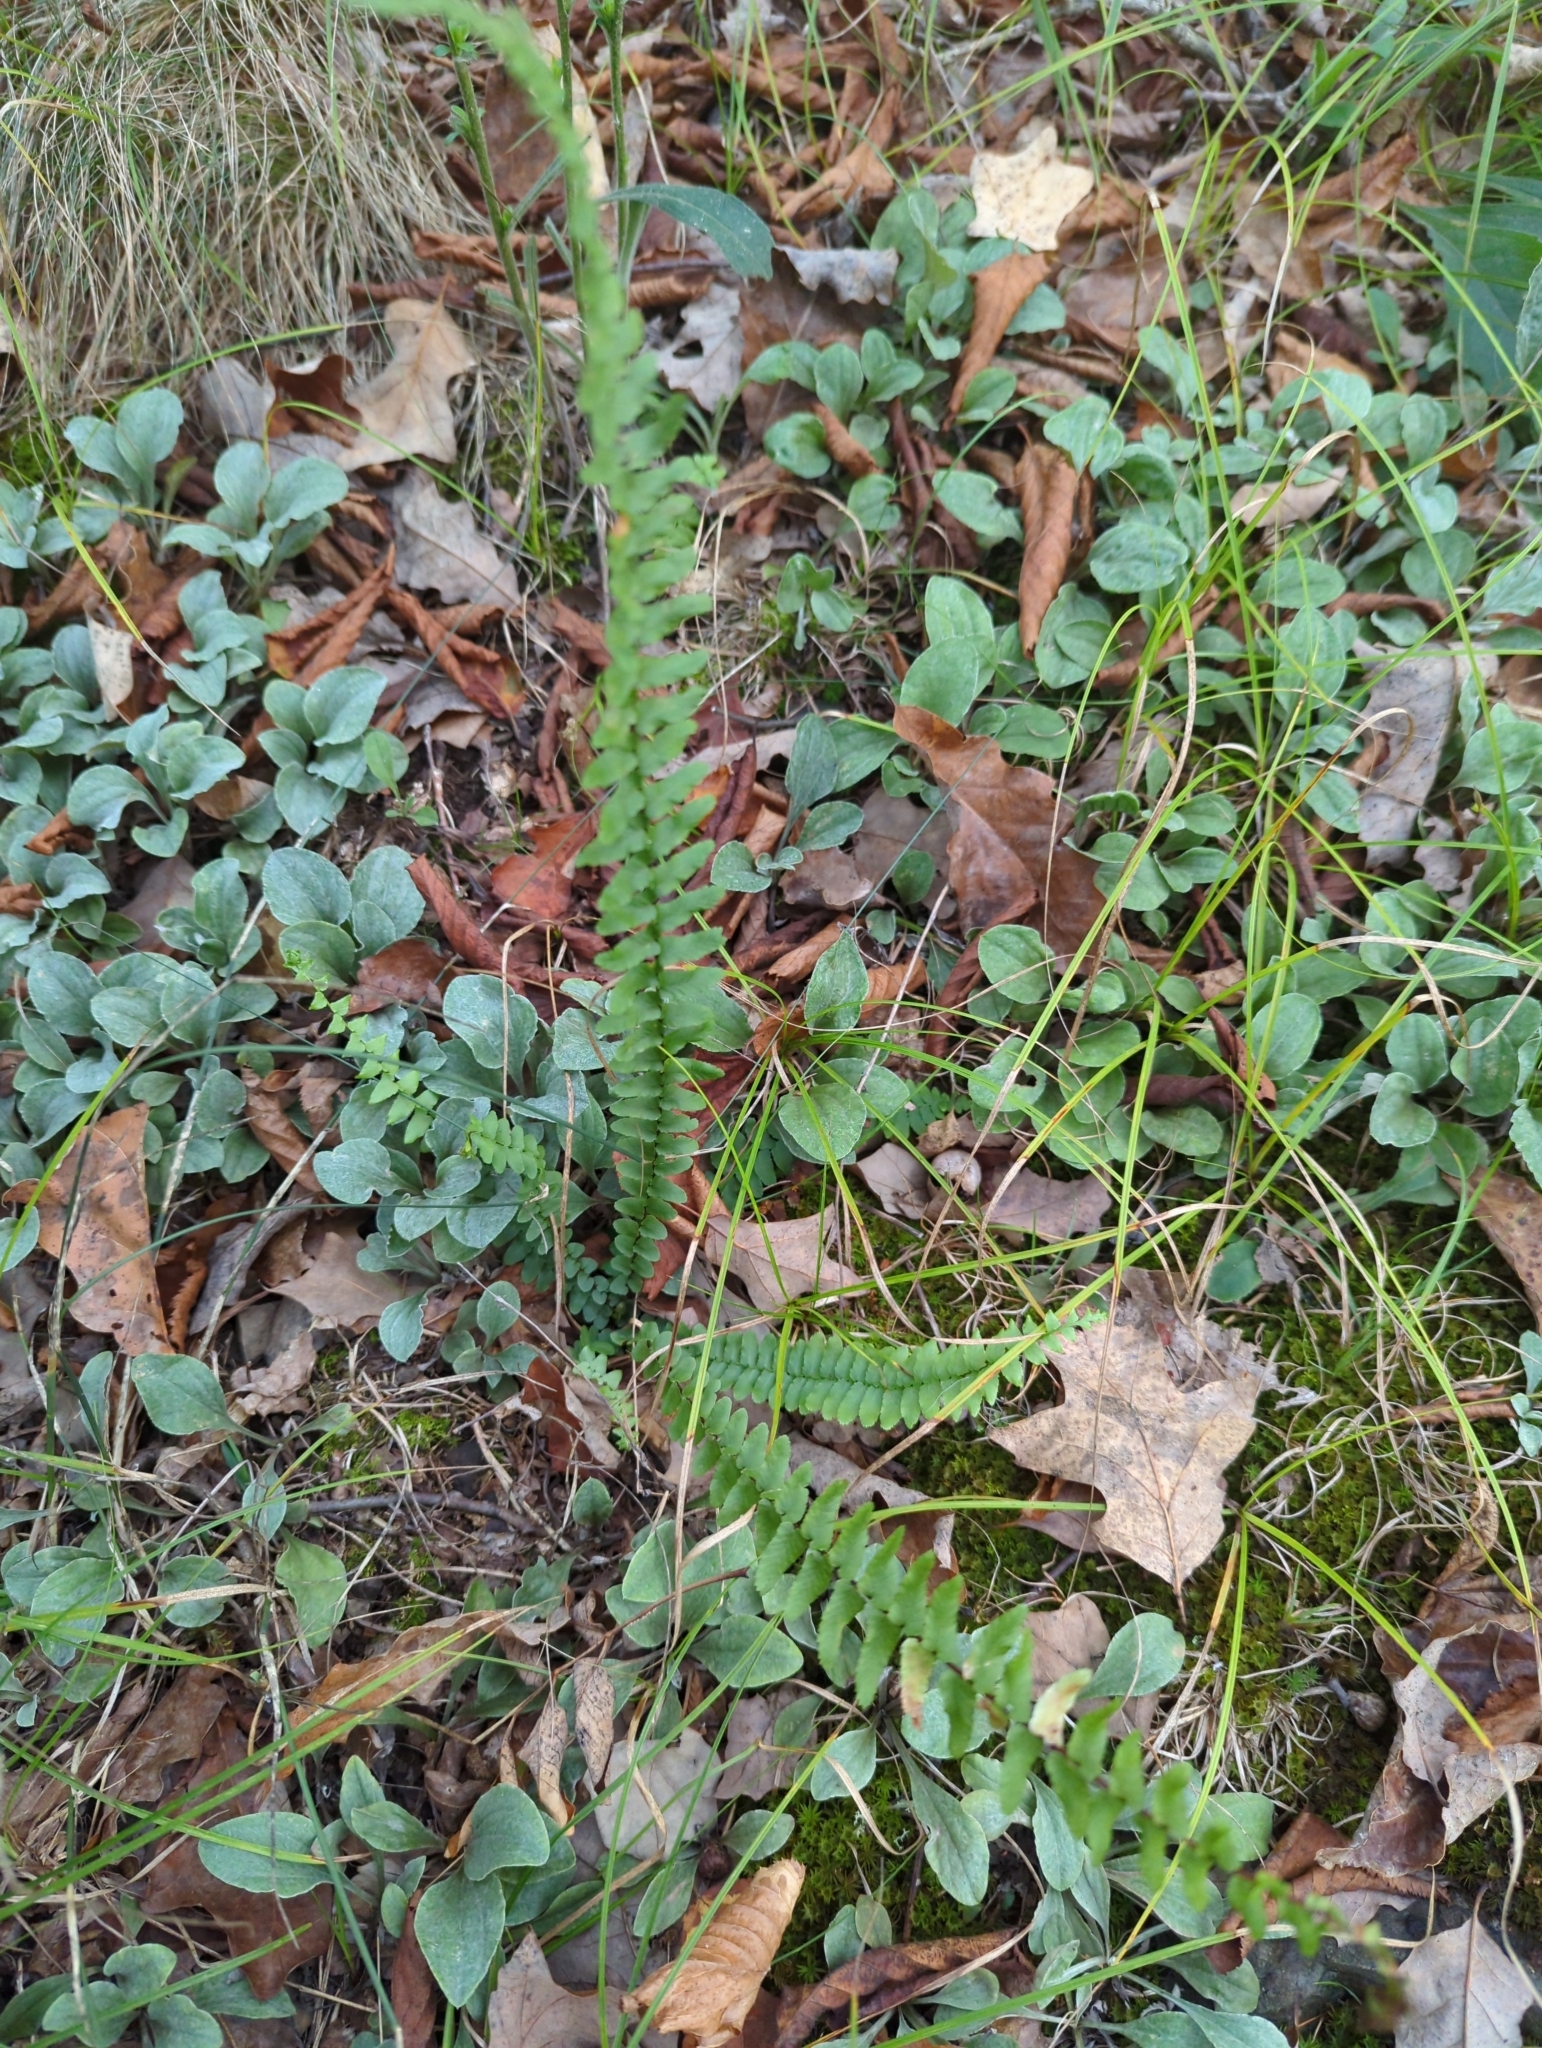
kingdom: Plantae
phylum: Tracheophyta
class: Polypodiopsida
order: Polypodiales
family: Aspleniaceae
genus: Asplenium
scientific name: Asplenium platyneuron
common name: Ebony spleenwort
